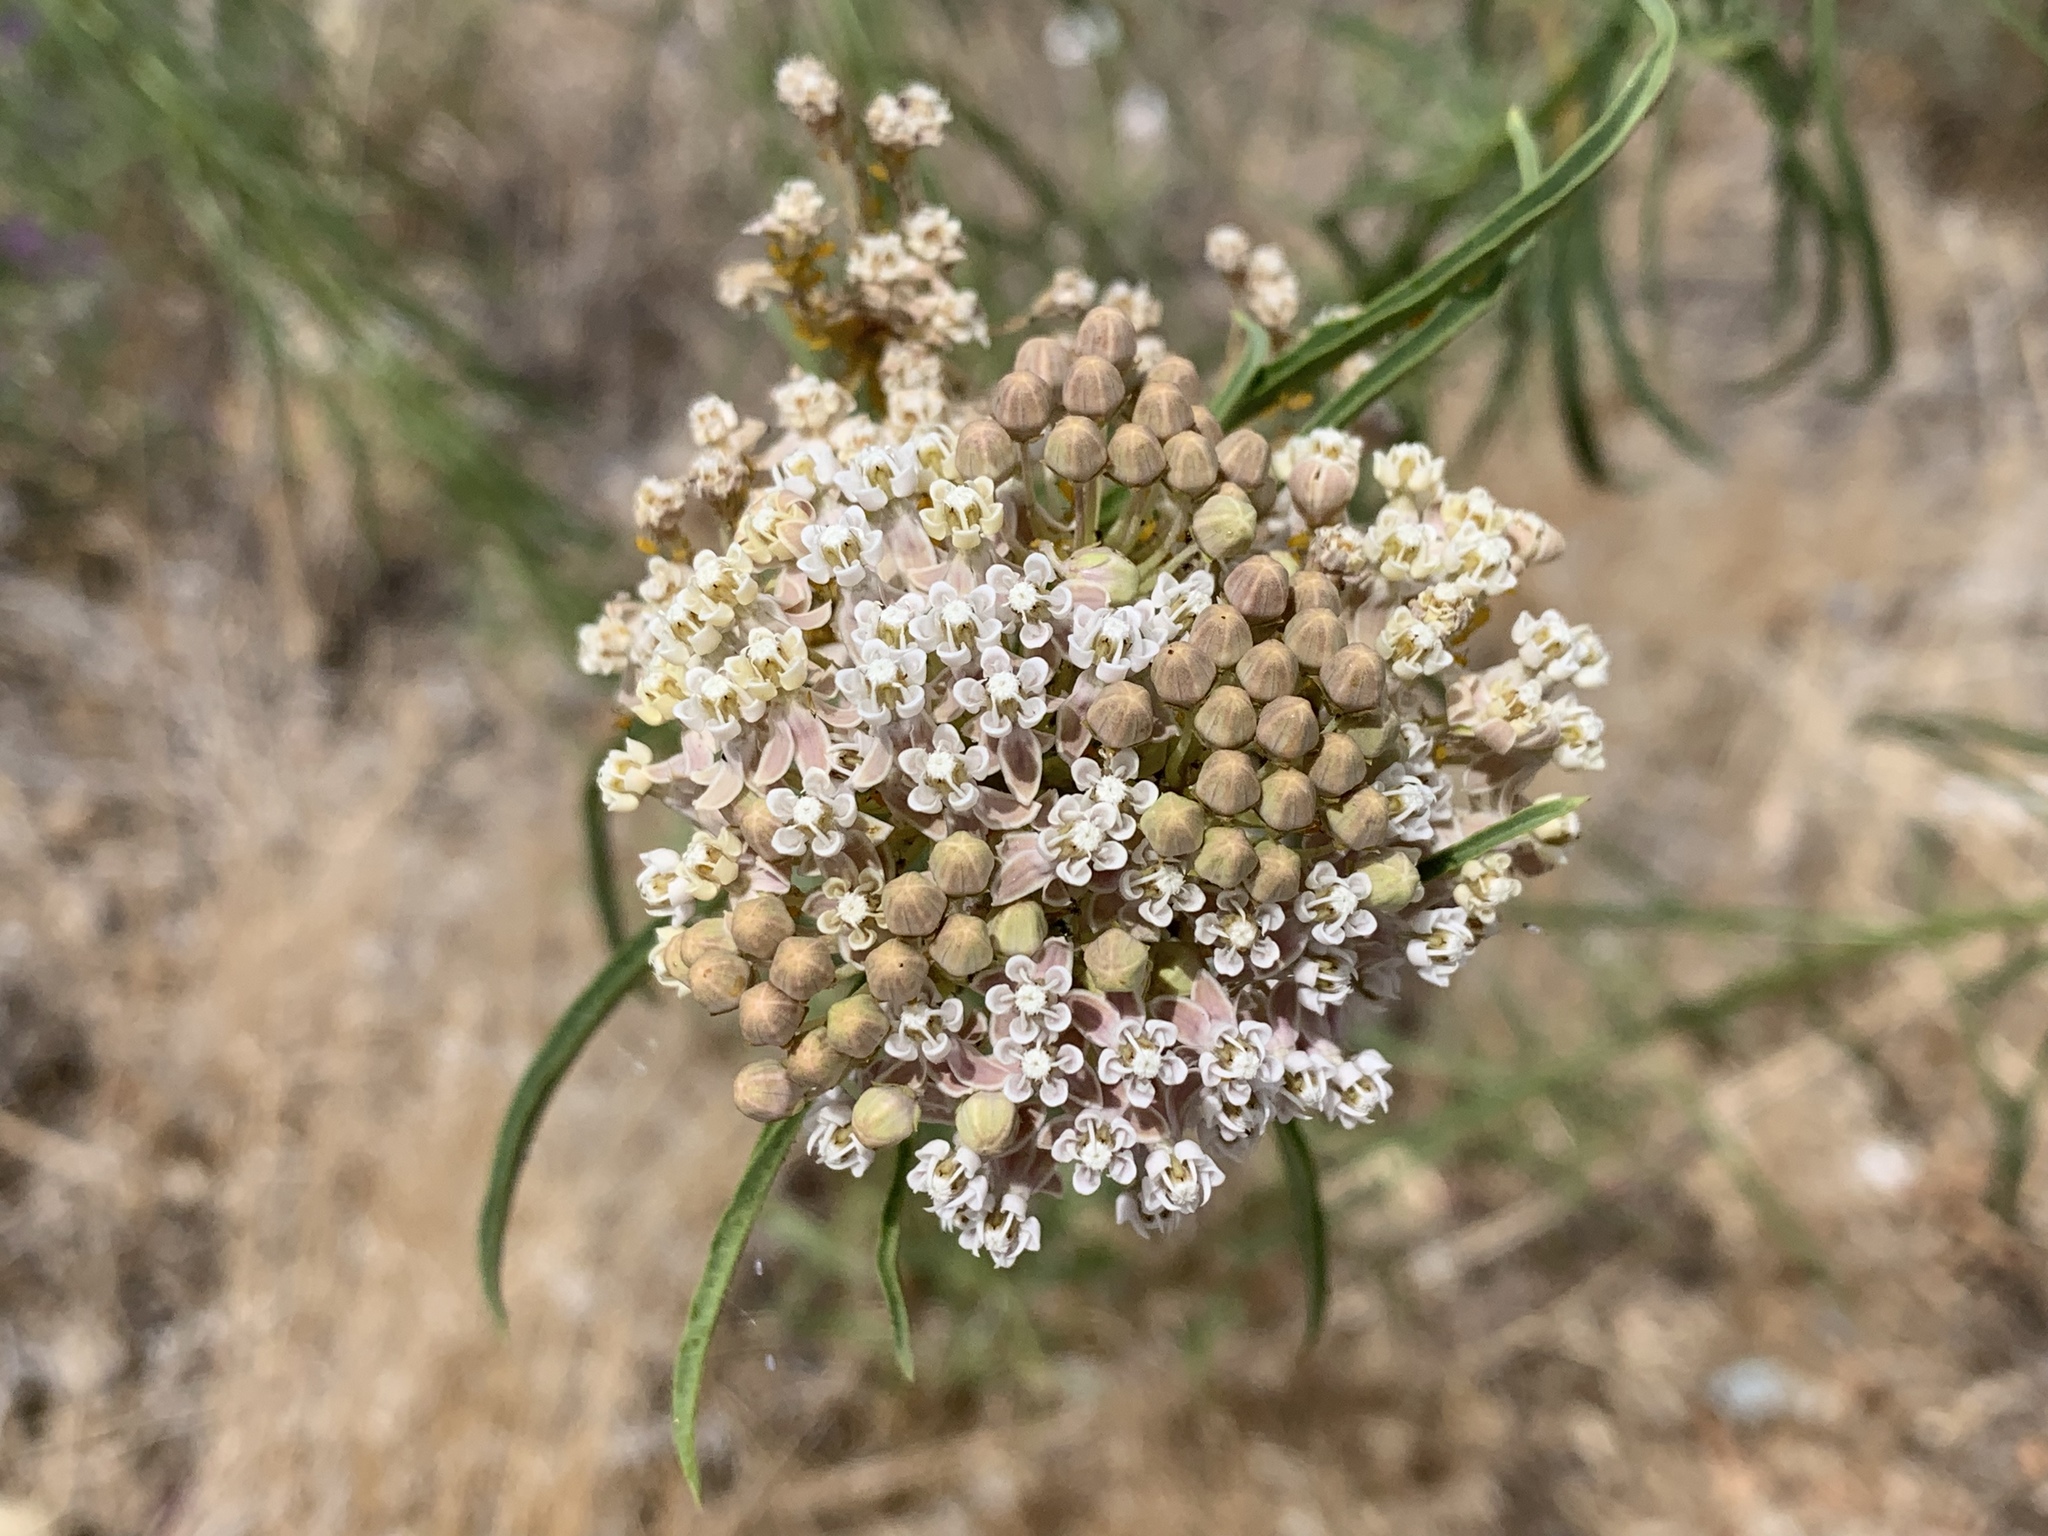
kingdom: Plantae
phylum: Tracheophyta
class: Magnoliopsida
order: Gentianales
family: Apocynaceae
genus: Asclepias
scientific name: Asclepias fascicularis
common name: Mexican milkweed
